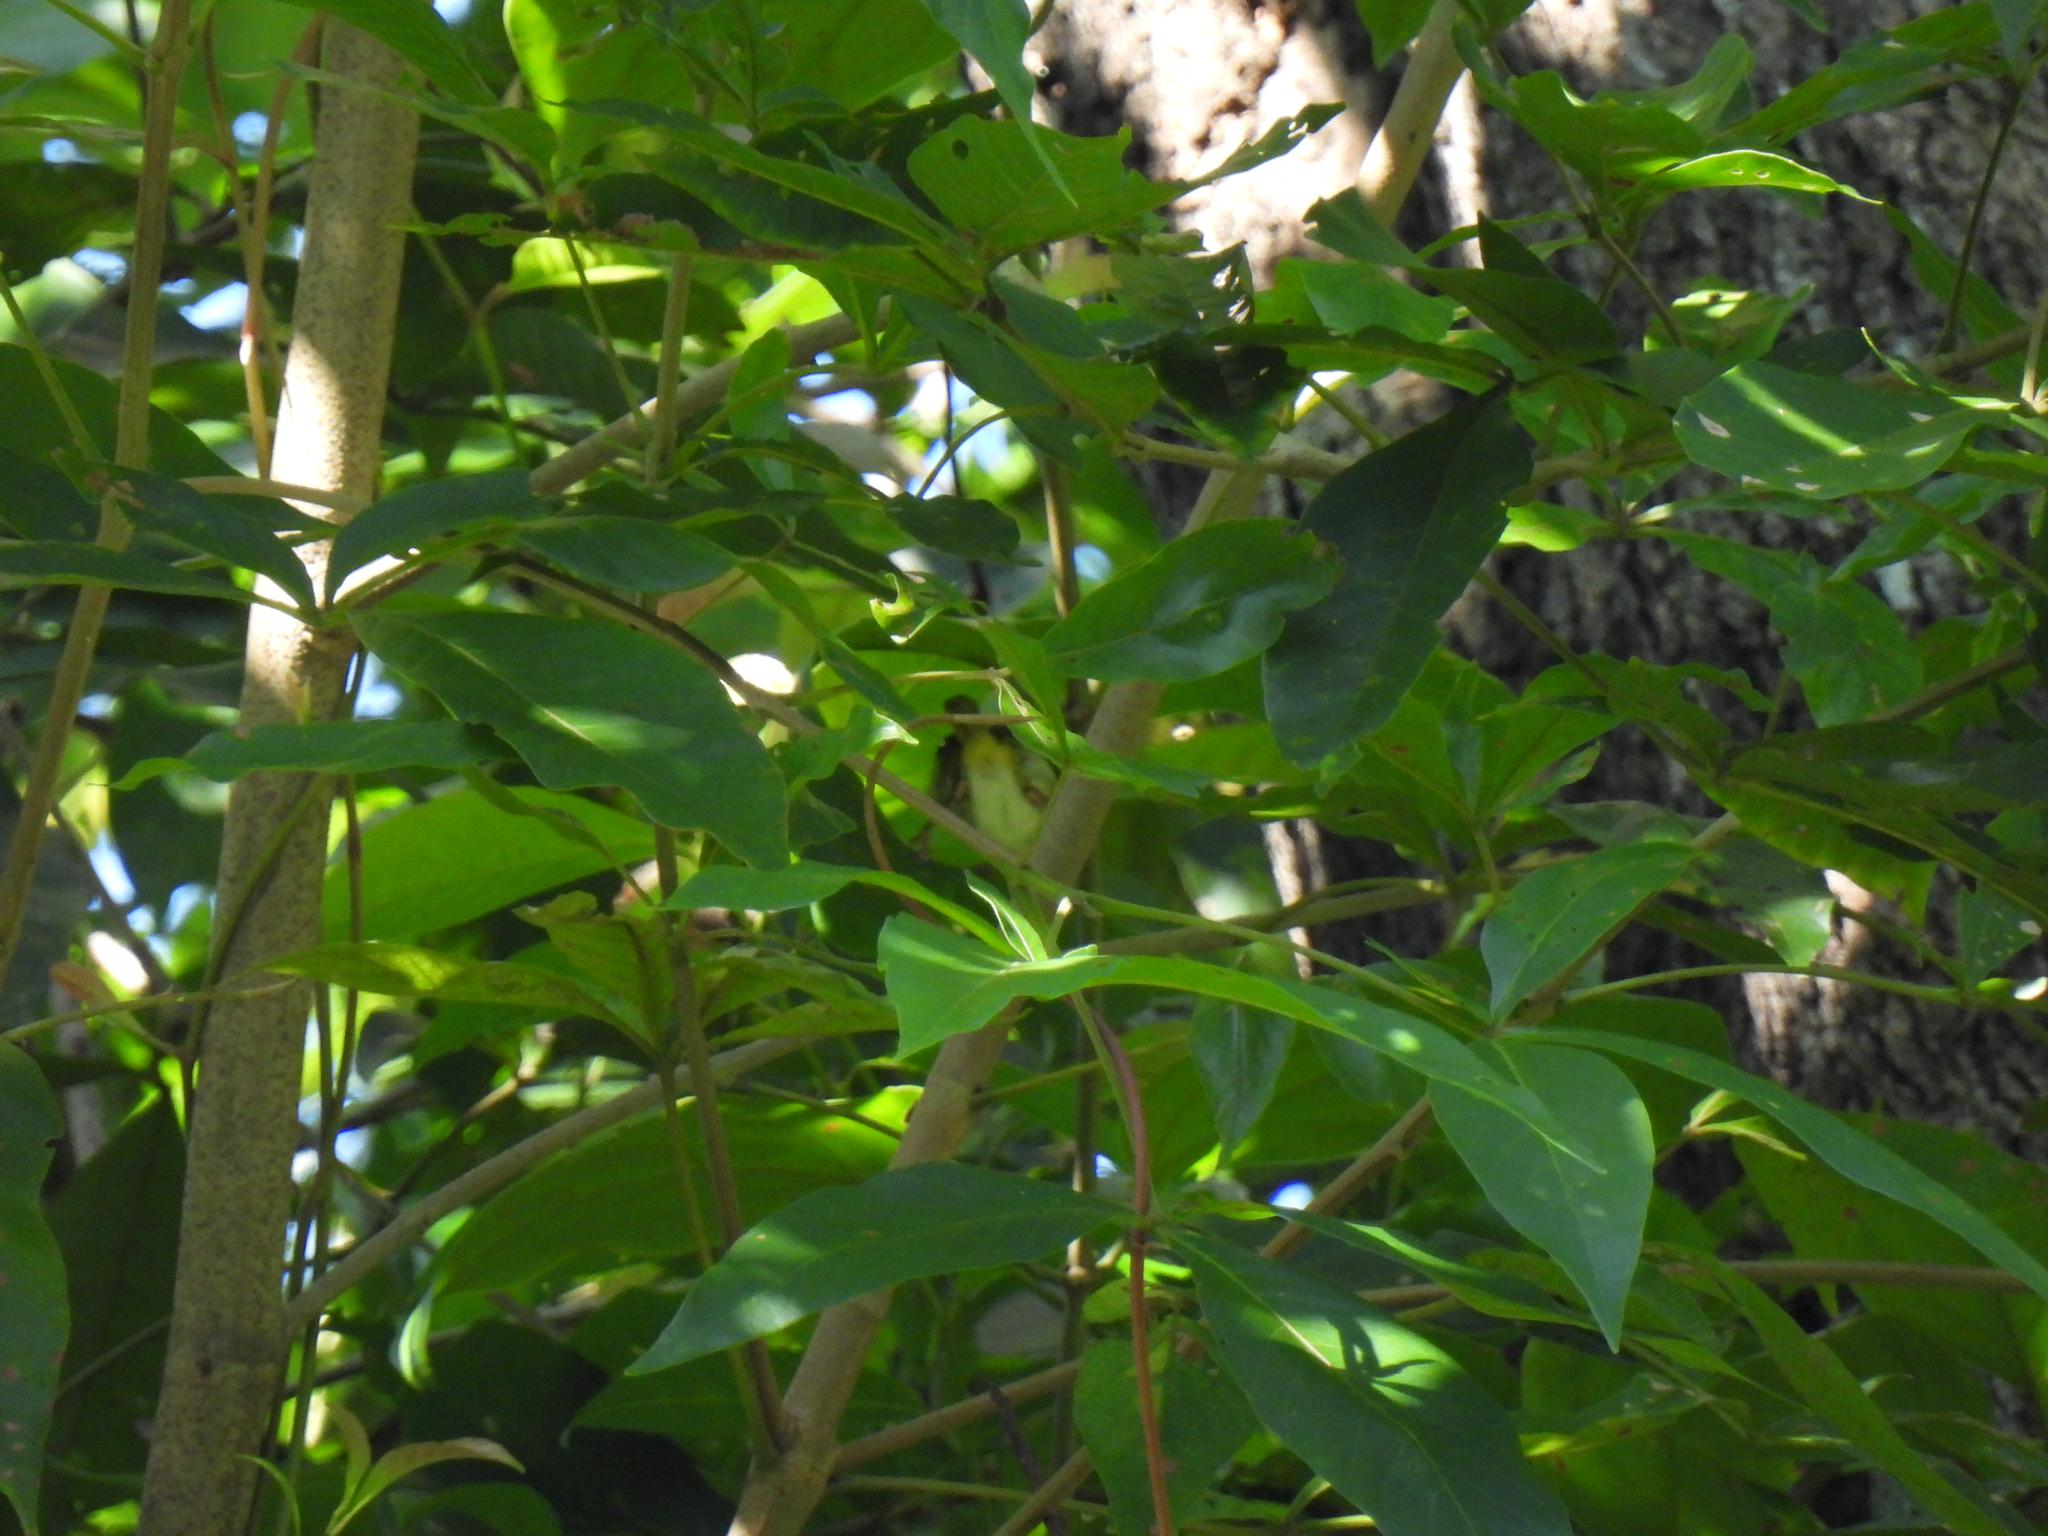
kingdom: Animalia
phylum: Chordata
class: Aves
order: Passeriformes
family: Cisticolidae
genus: Orthotomus
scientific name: Orthotomus atrogularis
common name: Dark-necked tailorbird
